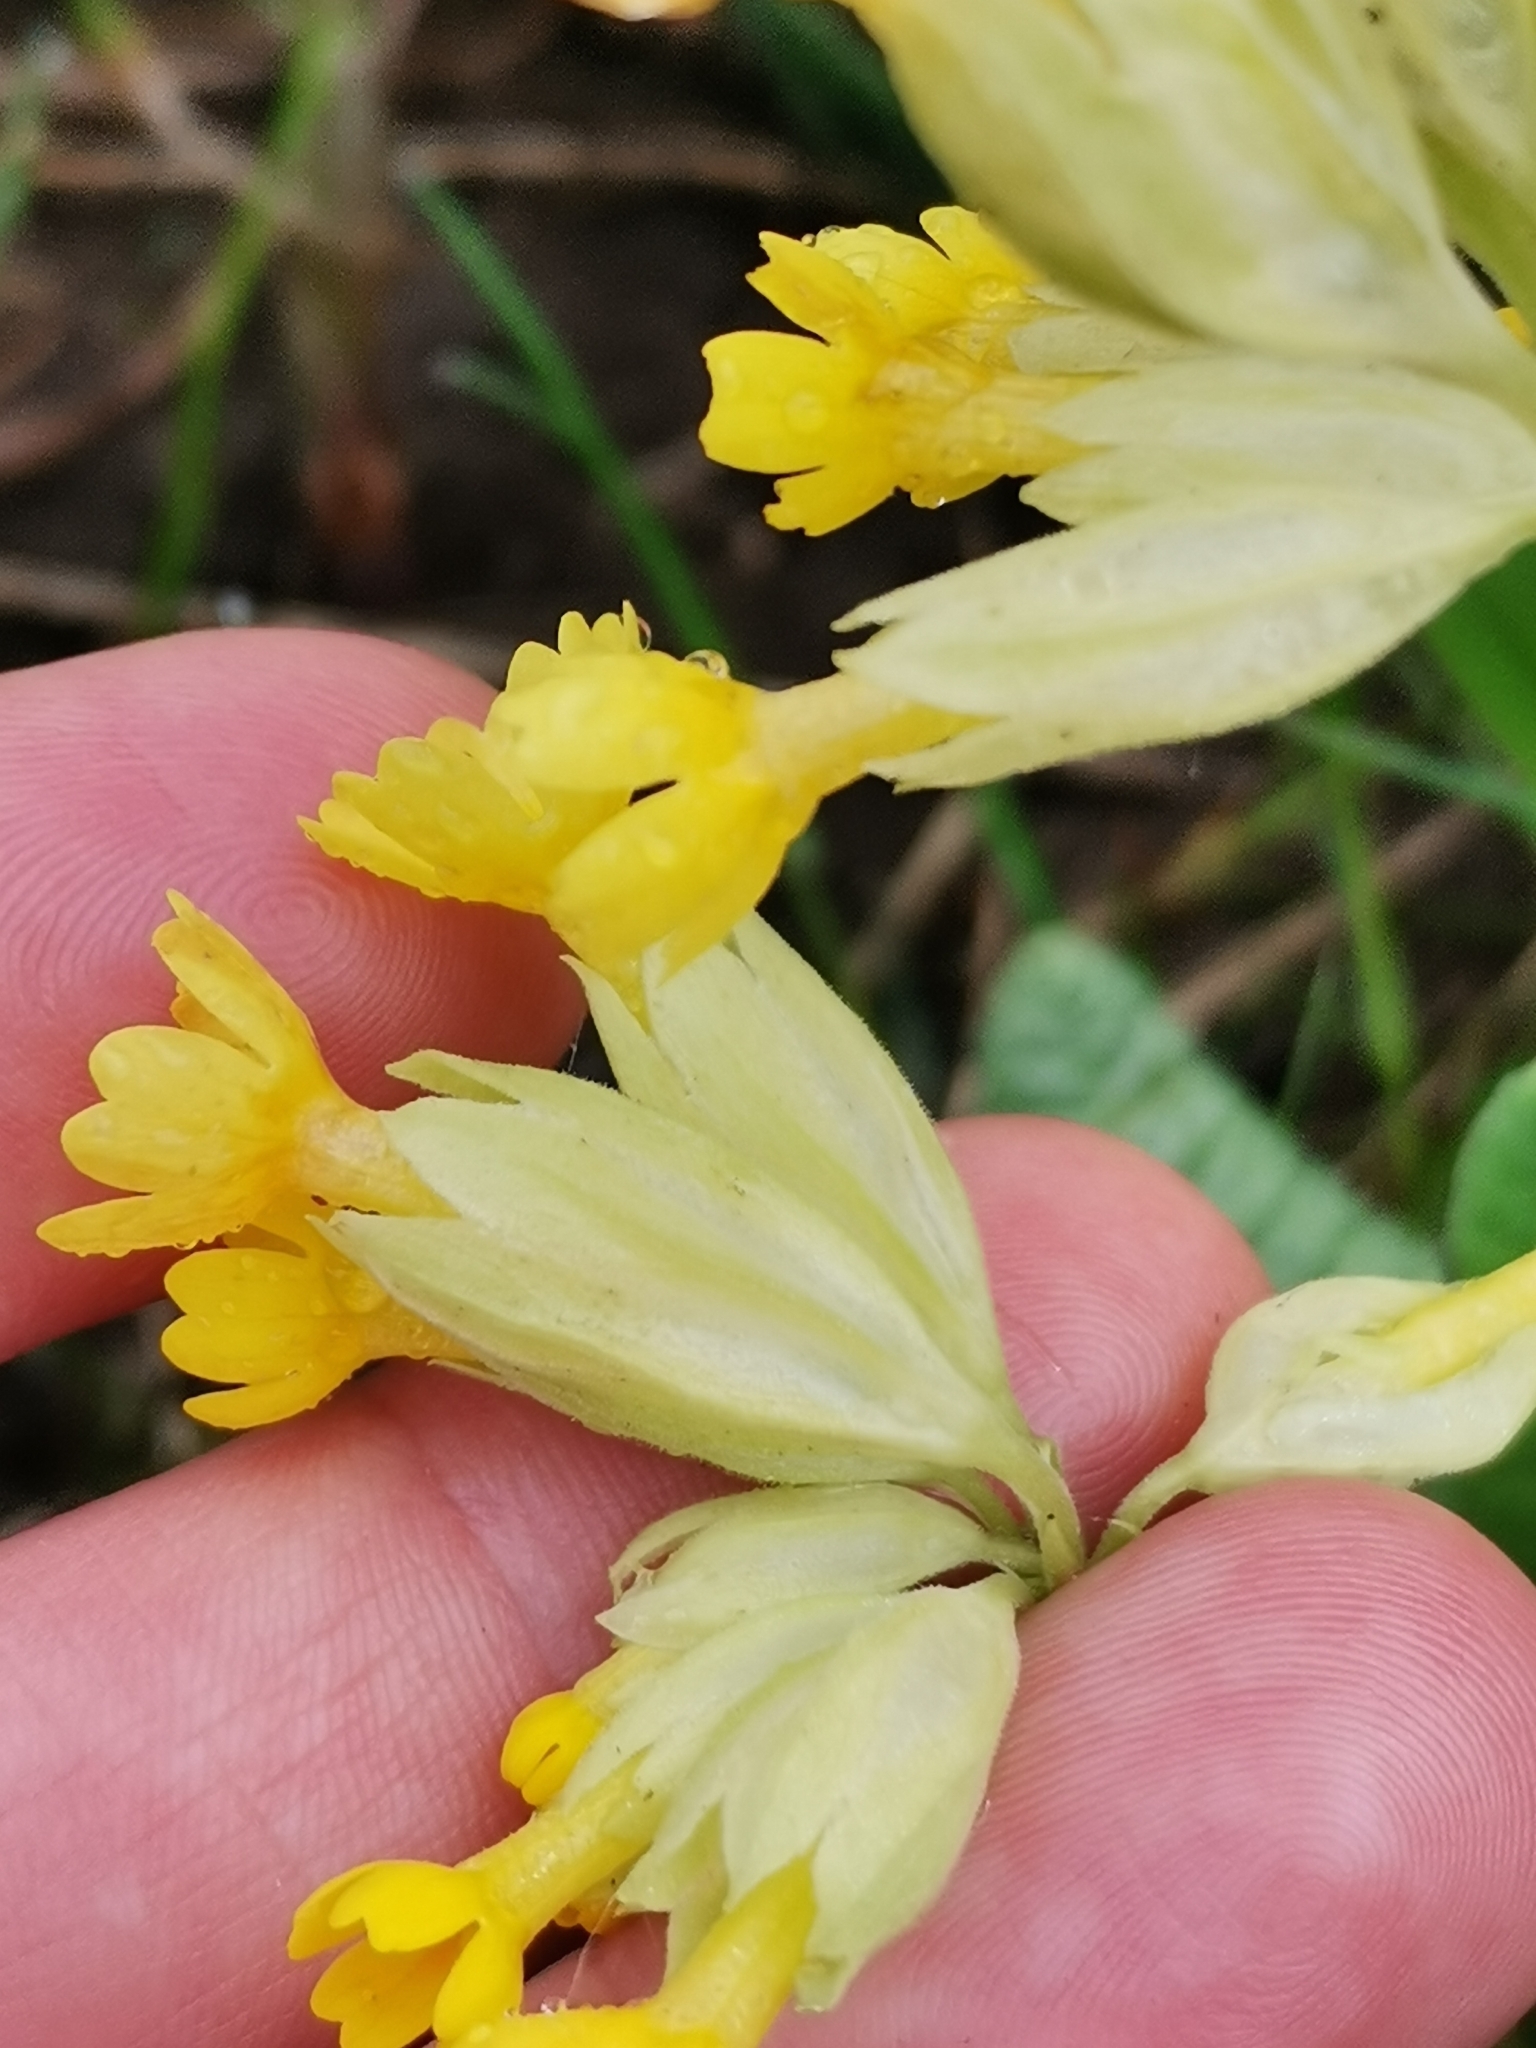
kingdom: Plantae
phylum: Tracheophyta
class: Magnoliopsida
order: Ericales
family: Primulaceae
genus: Primula
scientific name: Primula veris
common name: Cowslip
